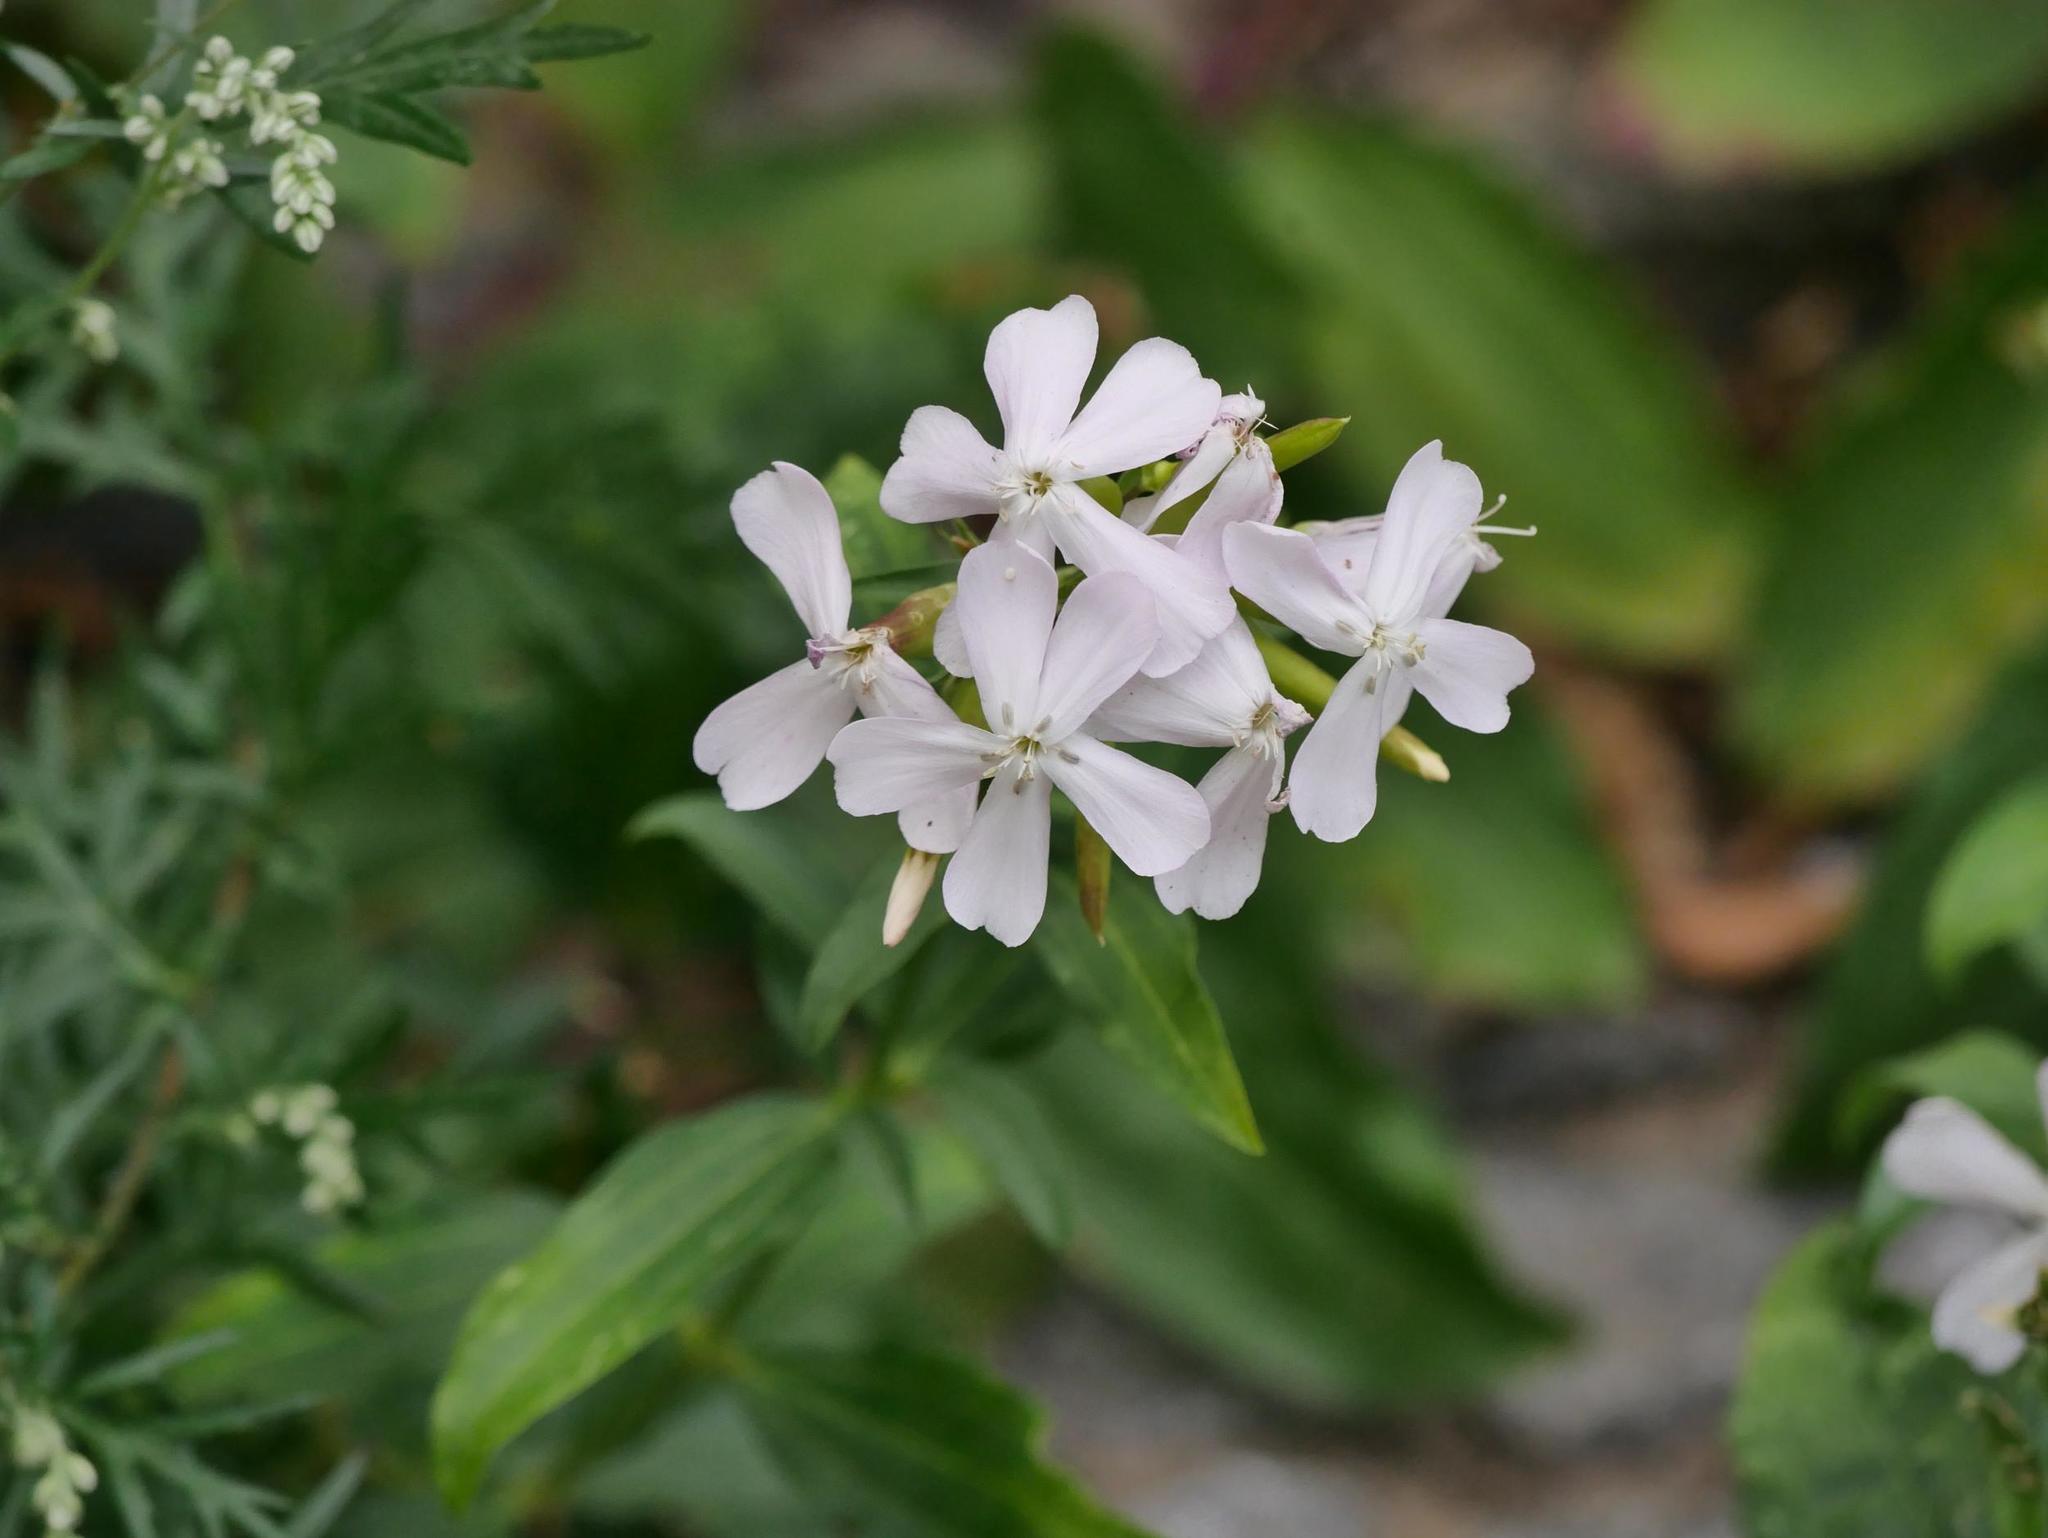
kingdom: Plantae
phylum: Tracheophyta
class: Magnoliopsida
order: Caryophyllales
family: Caryophyllaceae
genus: Saponaria
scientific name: Saponaria officinalis
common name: Soapwort
